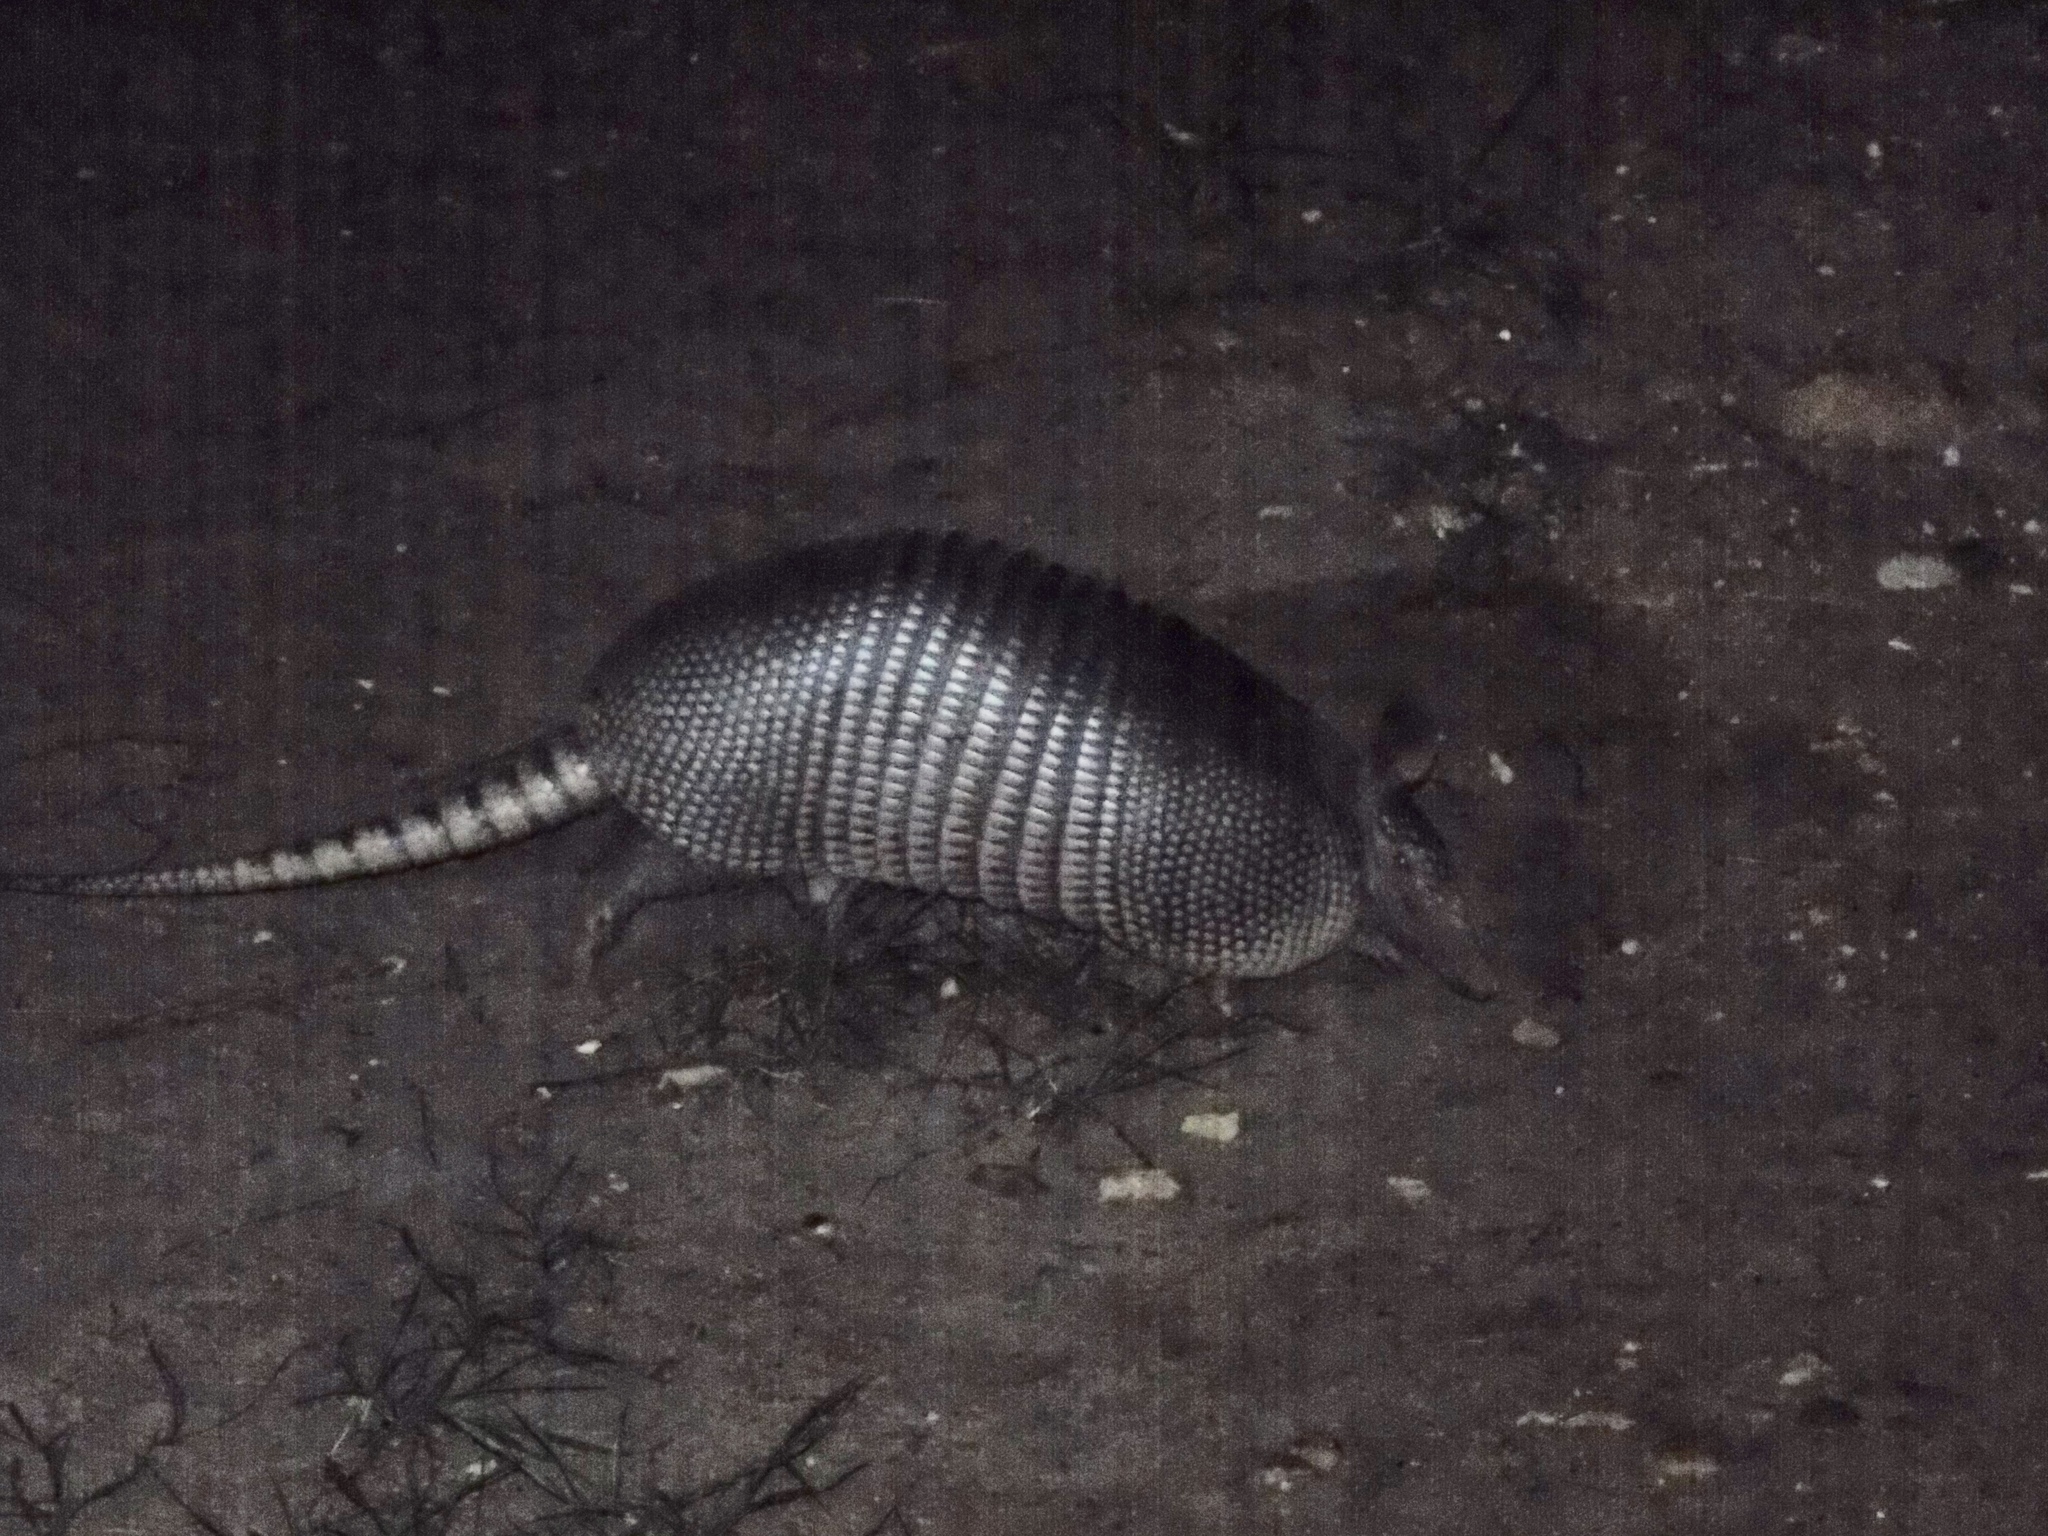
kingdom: Animalia
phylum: Chordata
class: Mammalia
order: Cingulata
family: Dasypodidae
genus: Dasypus
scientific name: Dasypus novemcinctus
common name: Nine-banded armadillo
